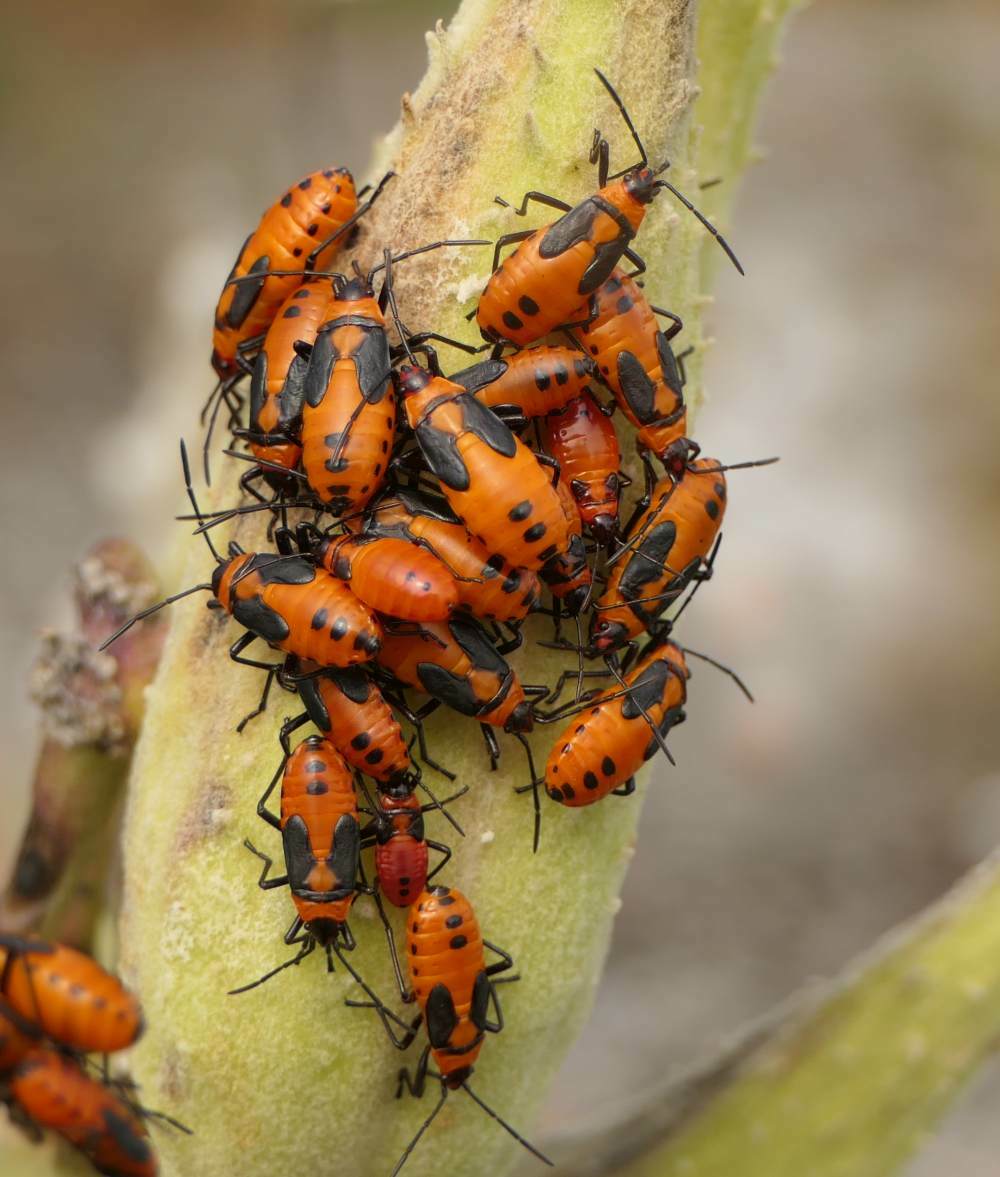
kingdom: Animalia
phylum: Arthropoda
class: Insecta
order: Hemiptera
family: Lygaeidae
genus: Oncopeltus
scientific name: Oncopeltus fasciatus
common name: Large milkweed bug
